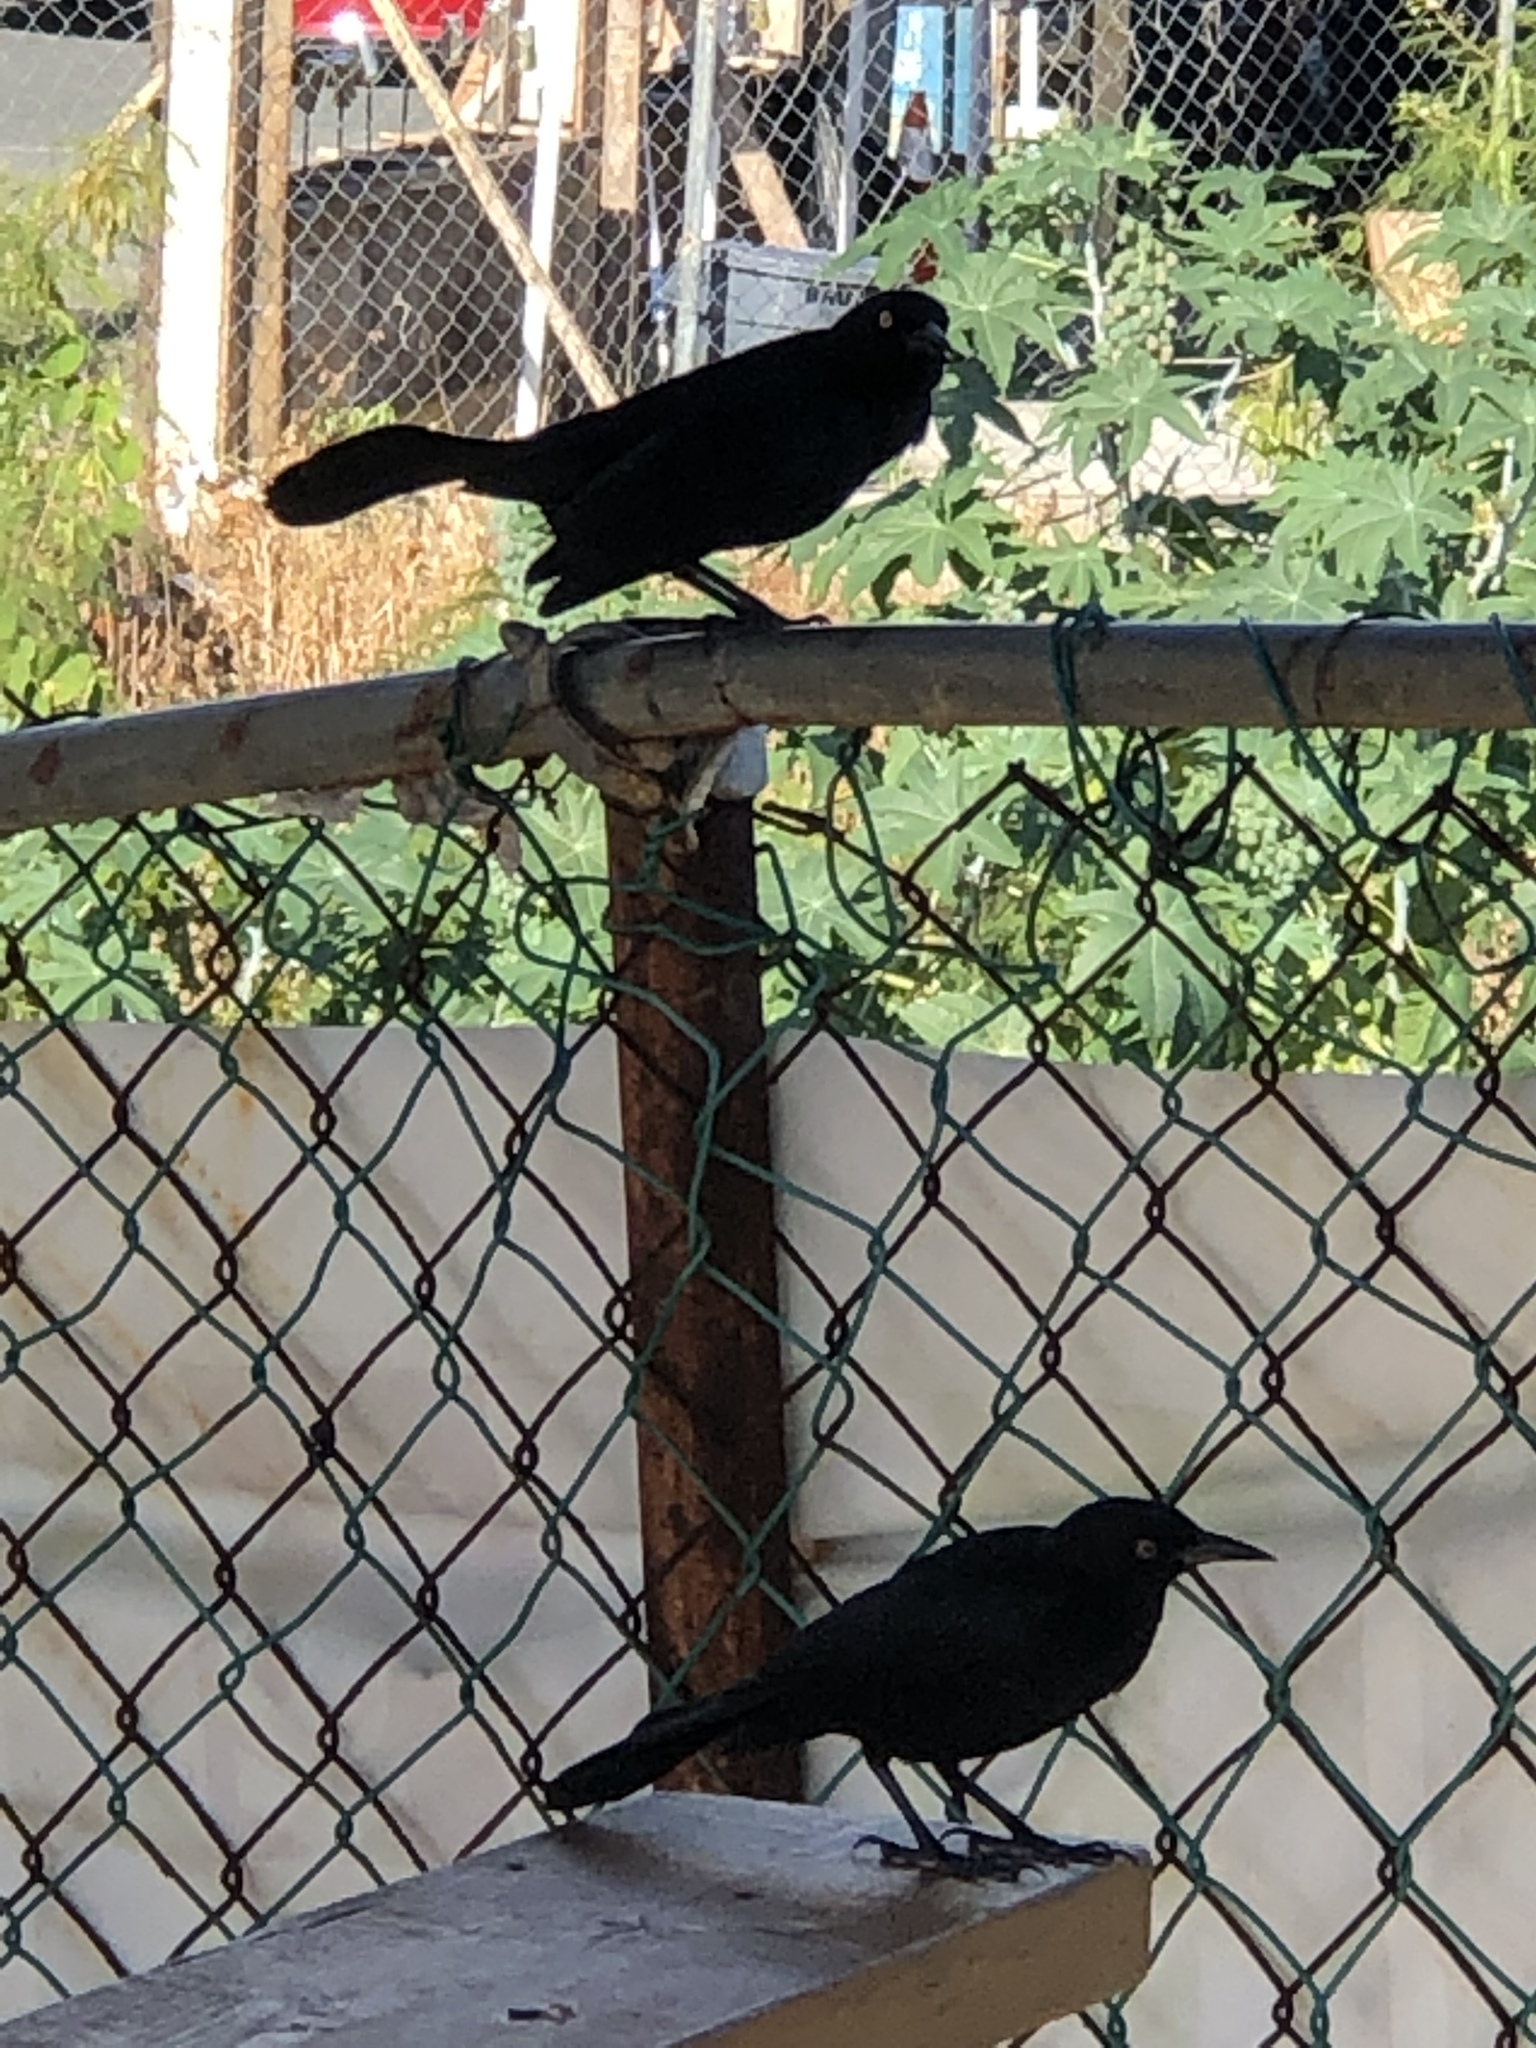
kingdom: Animalia
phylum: Chordata
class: Aves
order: Passeriformes
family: Icteridae
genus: Quiscalus
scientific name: Quiscalus niger
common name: Greater antillean grackle
